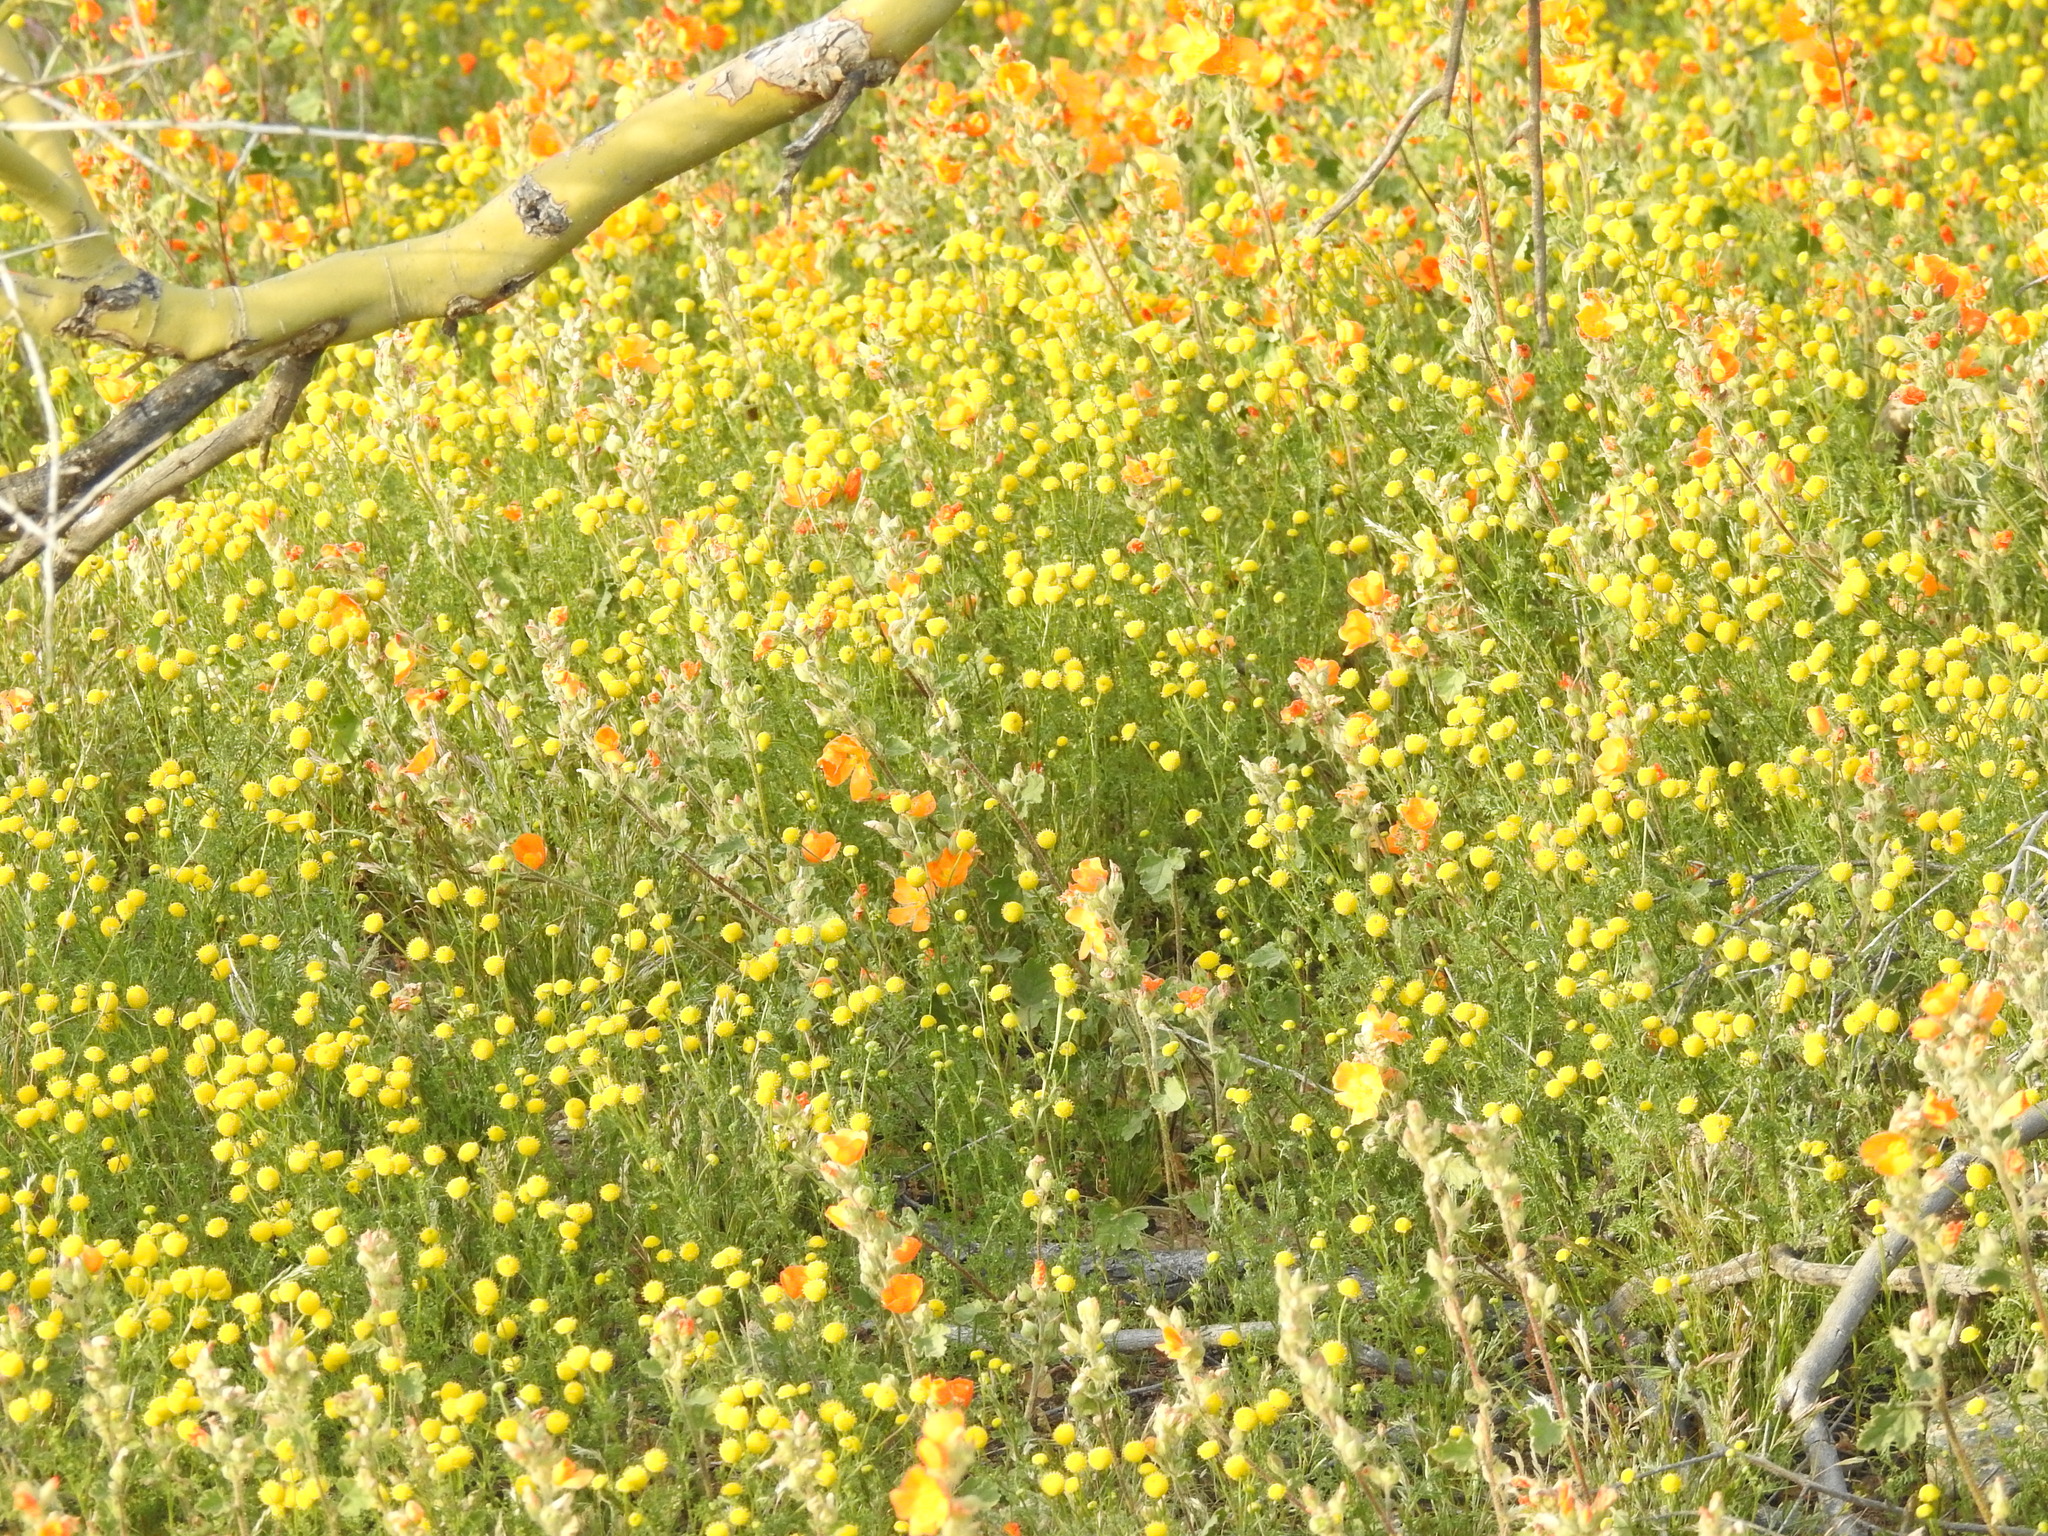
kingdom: Plantae
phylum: Tracheophyta
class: Magnoliopsida
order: Asterales
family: Asteraceae
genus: Oncosiphon
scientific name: Oncosiphon pilulifer
